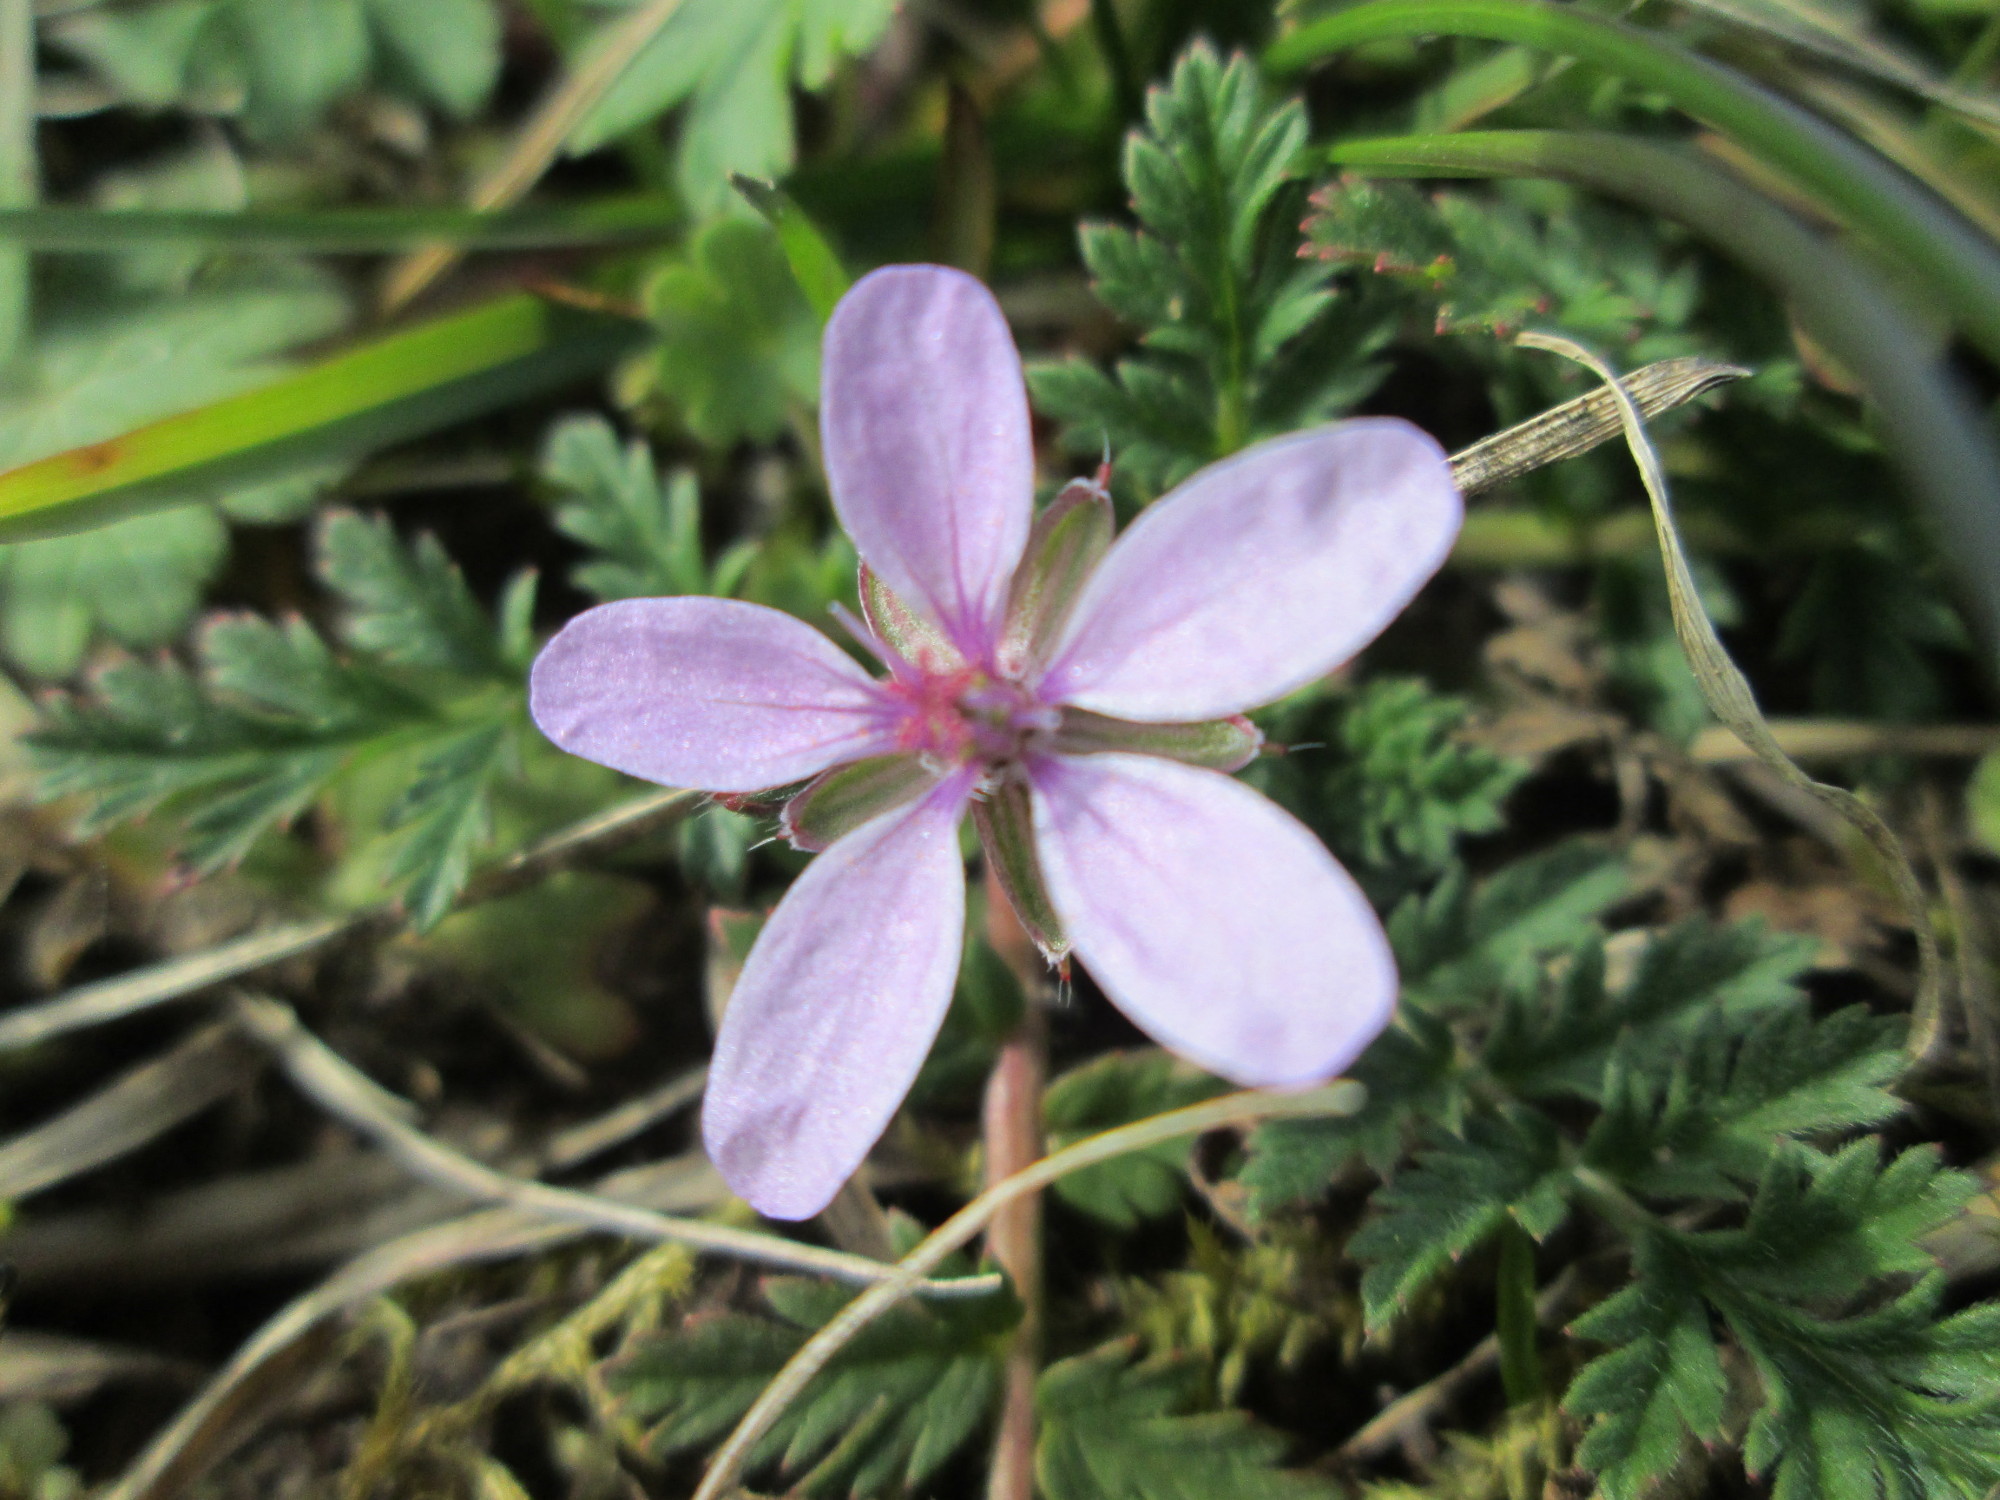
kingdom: Plantae
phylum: Tracheophyta
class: Magnoliopsida
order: Geraniales
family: Geraniaceae
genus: Erodium
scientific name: Erodium cicutarium
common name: Common stork's-bill
